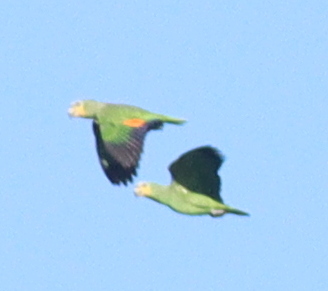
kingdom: Animalia
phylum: Chordata
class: Aves
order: Psittaciformes
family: Psittacidae
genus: Amazona
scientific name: Amazona amazonica
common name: Orange-winged amazon
